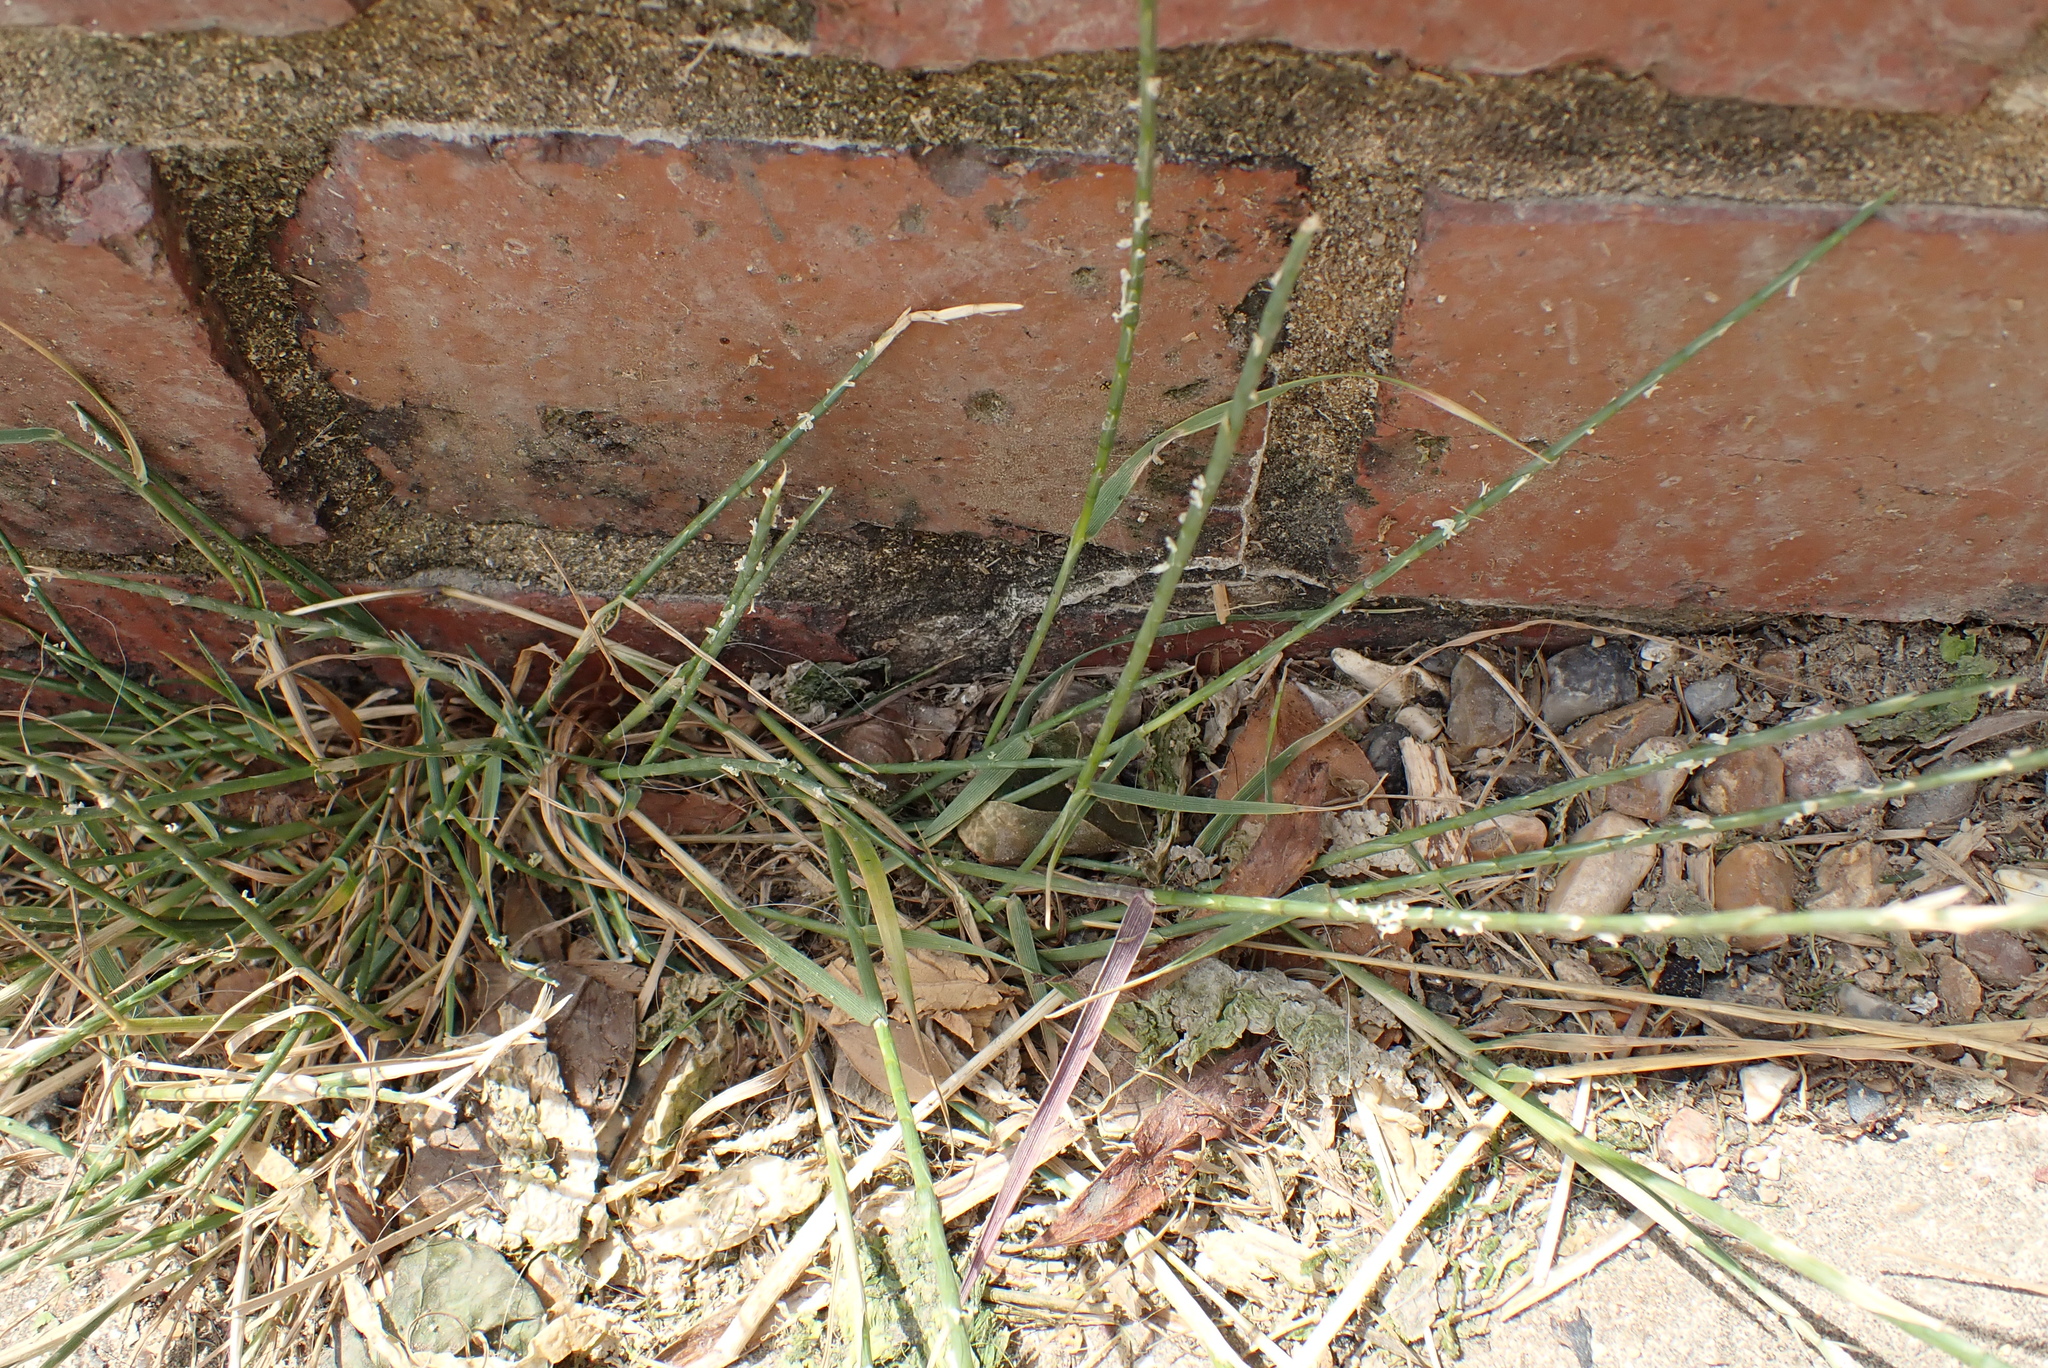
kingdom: Plantae
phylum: Tracheophyta
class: Liliopsida
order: Poales
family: Poaceae
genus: Parapholis
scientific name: Parapholis strigosa
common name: Hard-grass
